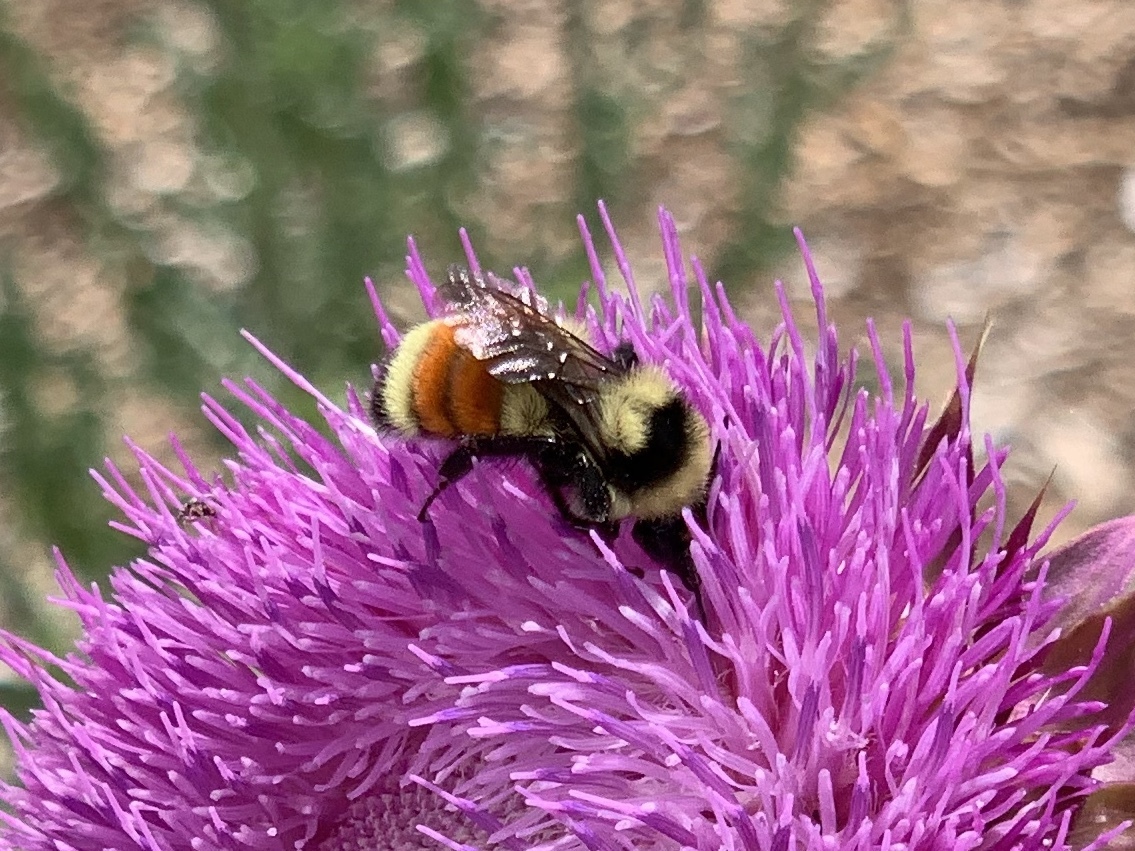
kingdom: Animalia
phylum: Arthropoda
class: Insecta
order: Hymenoptera
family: Apidae
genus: Bombus
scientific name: Bombus huntii
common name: Hunt bumble bee
